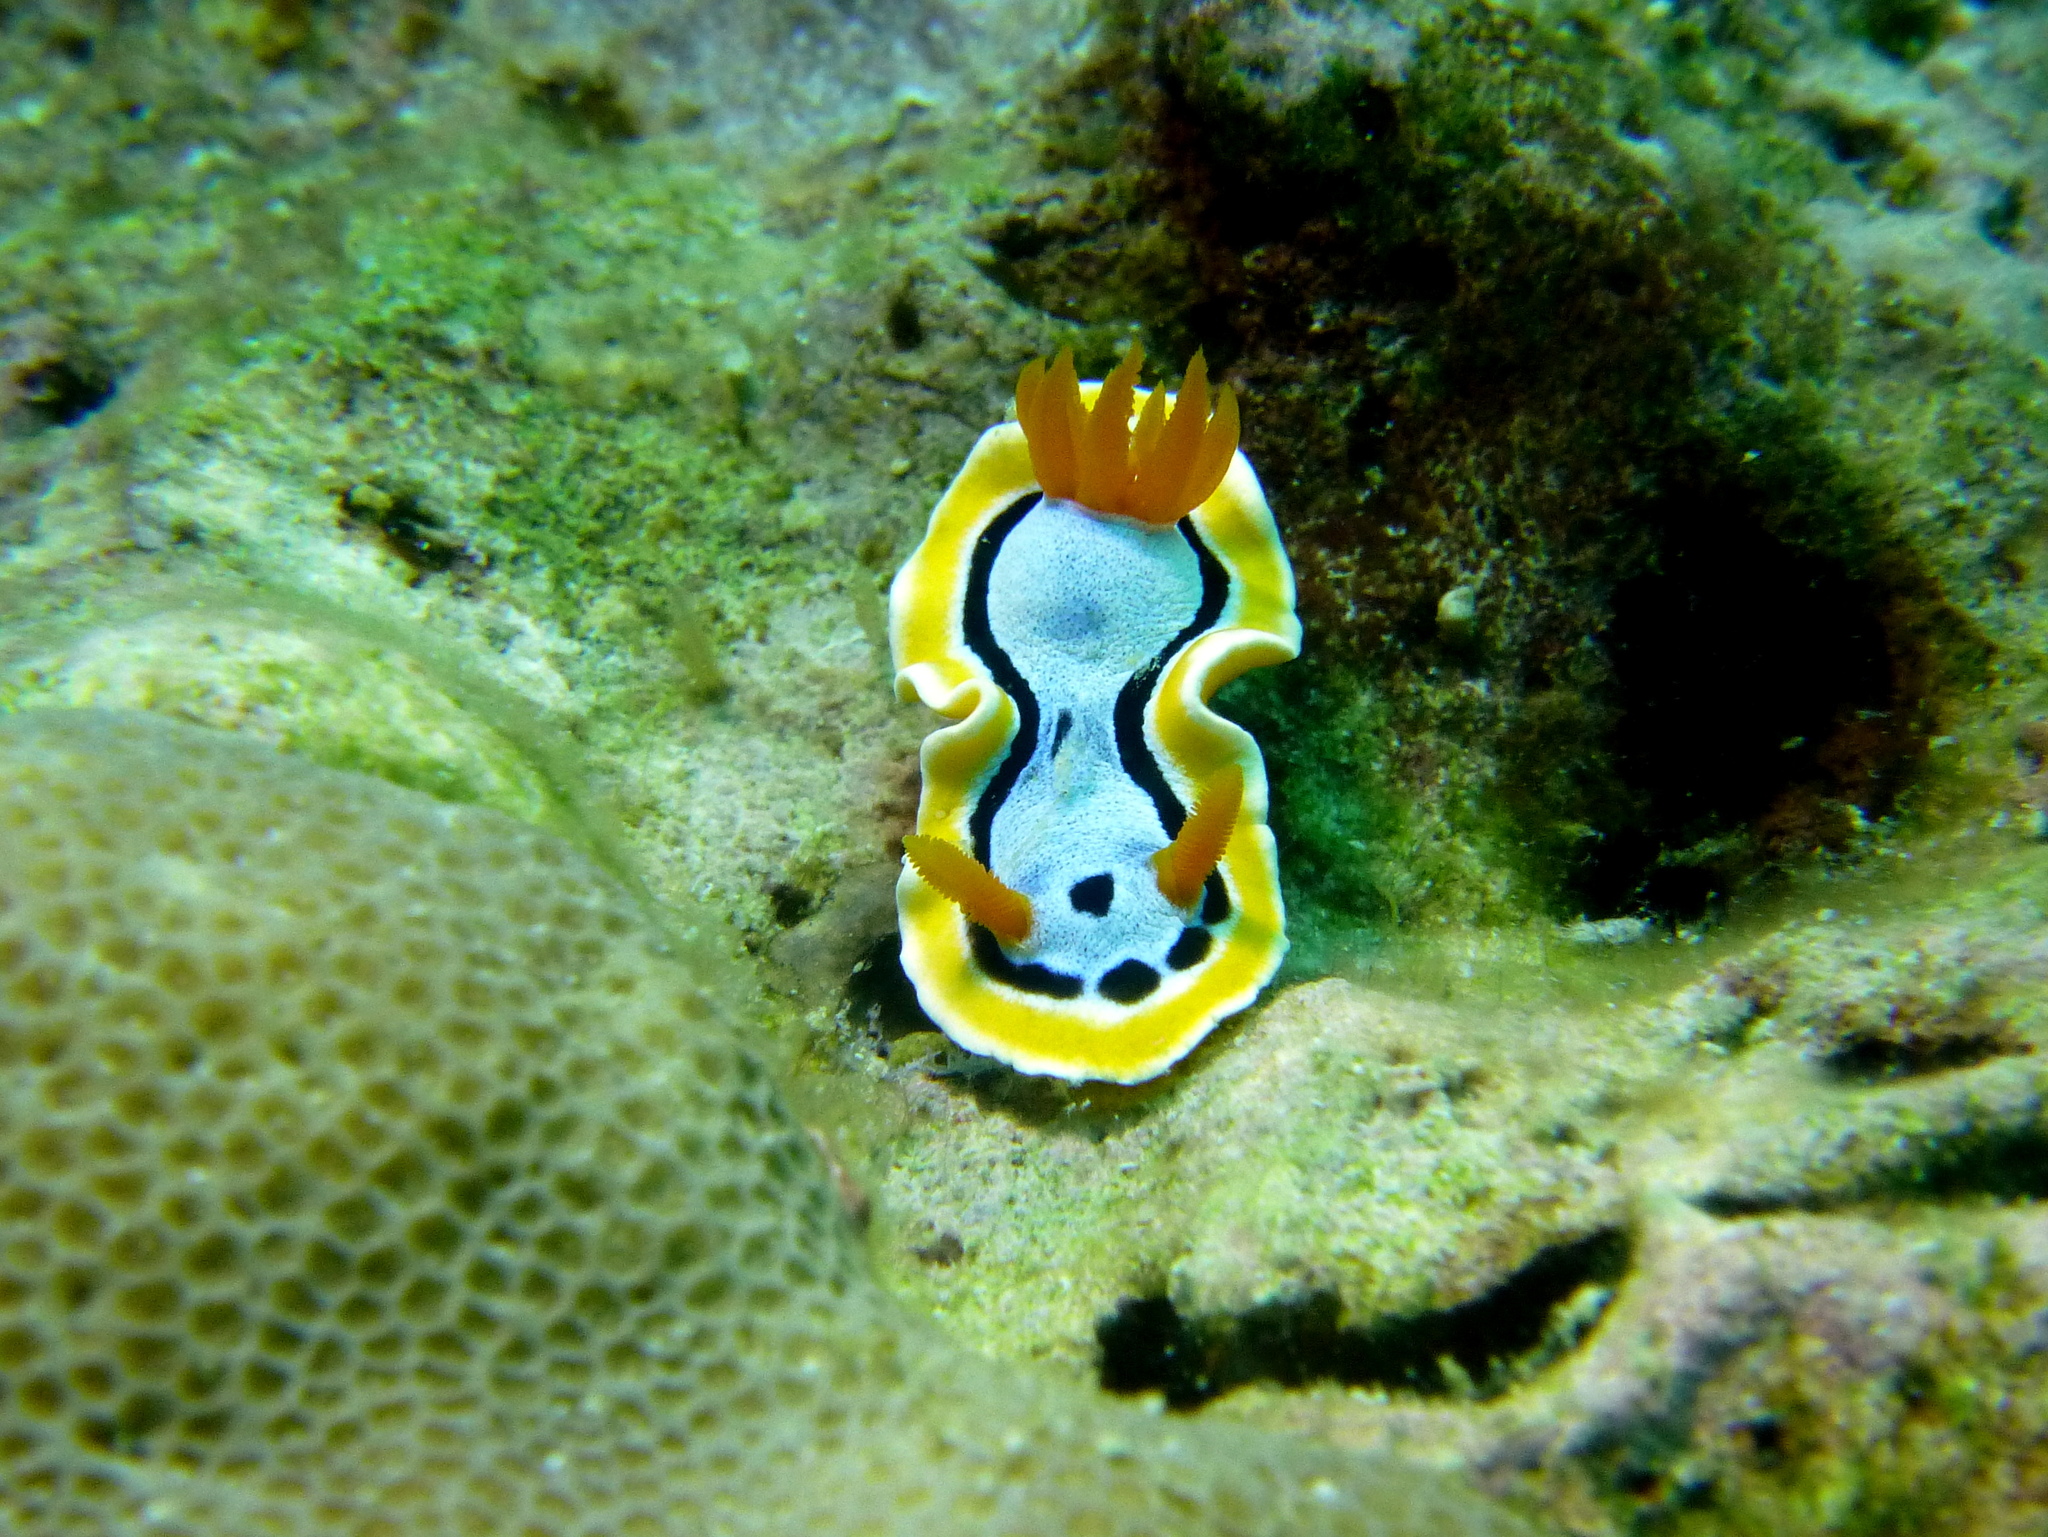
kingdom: Animalia
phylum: Mollusca
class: Gastropoda
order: Nudibranchia
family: Chromodorididae
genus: Chromodoris
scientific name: Chromodoris annae
